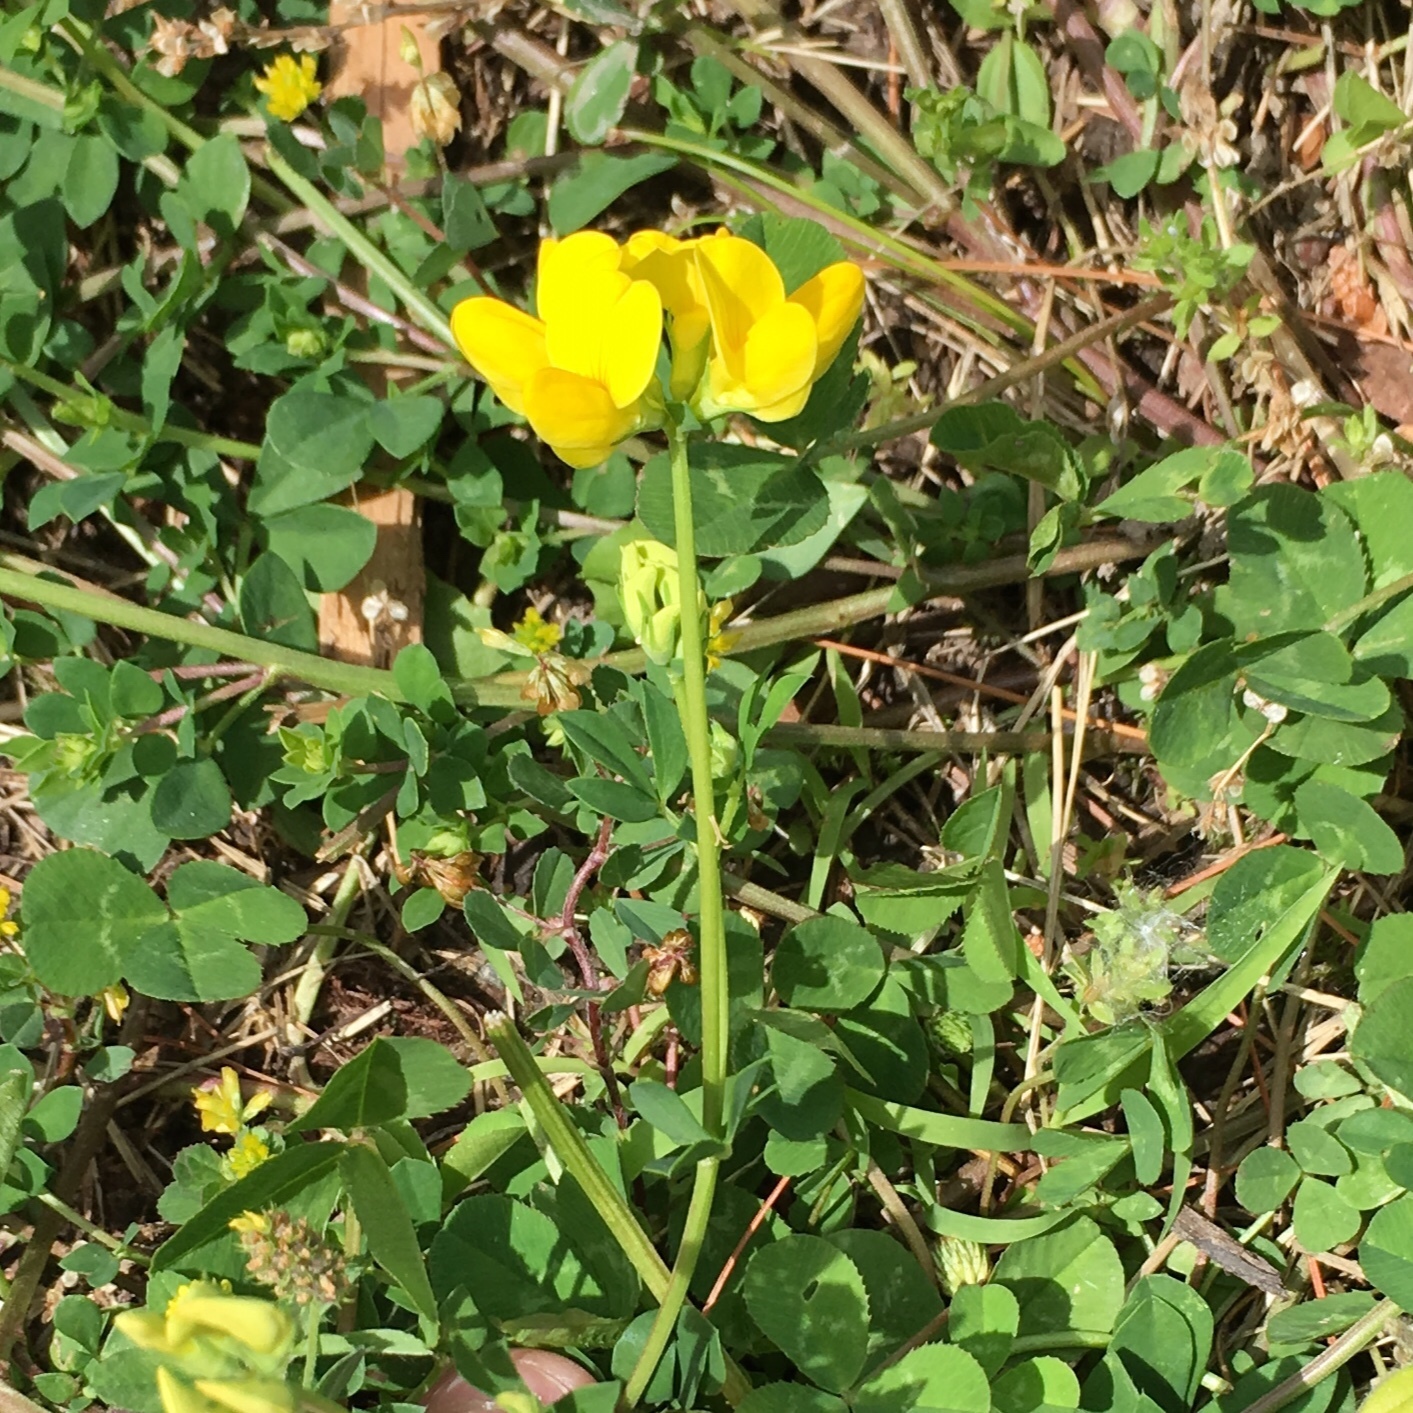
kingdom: Plantae
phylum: Tracheophyta
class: Magnoliopsida
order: Fabales
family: Fabaceae
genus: Lotus
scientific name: Lotus corniculatus
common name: Common bird's-foot-trefoil
